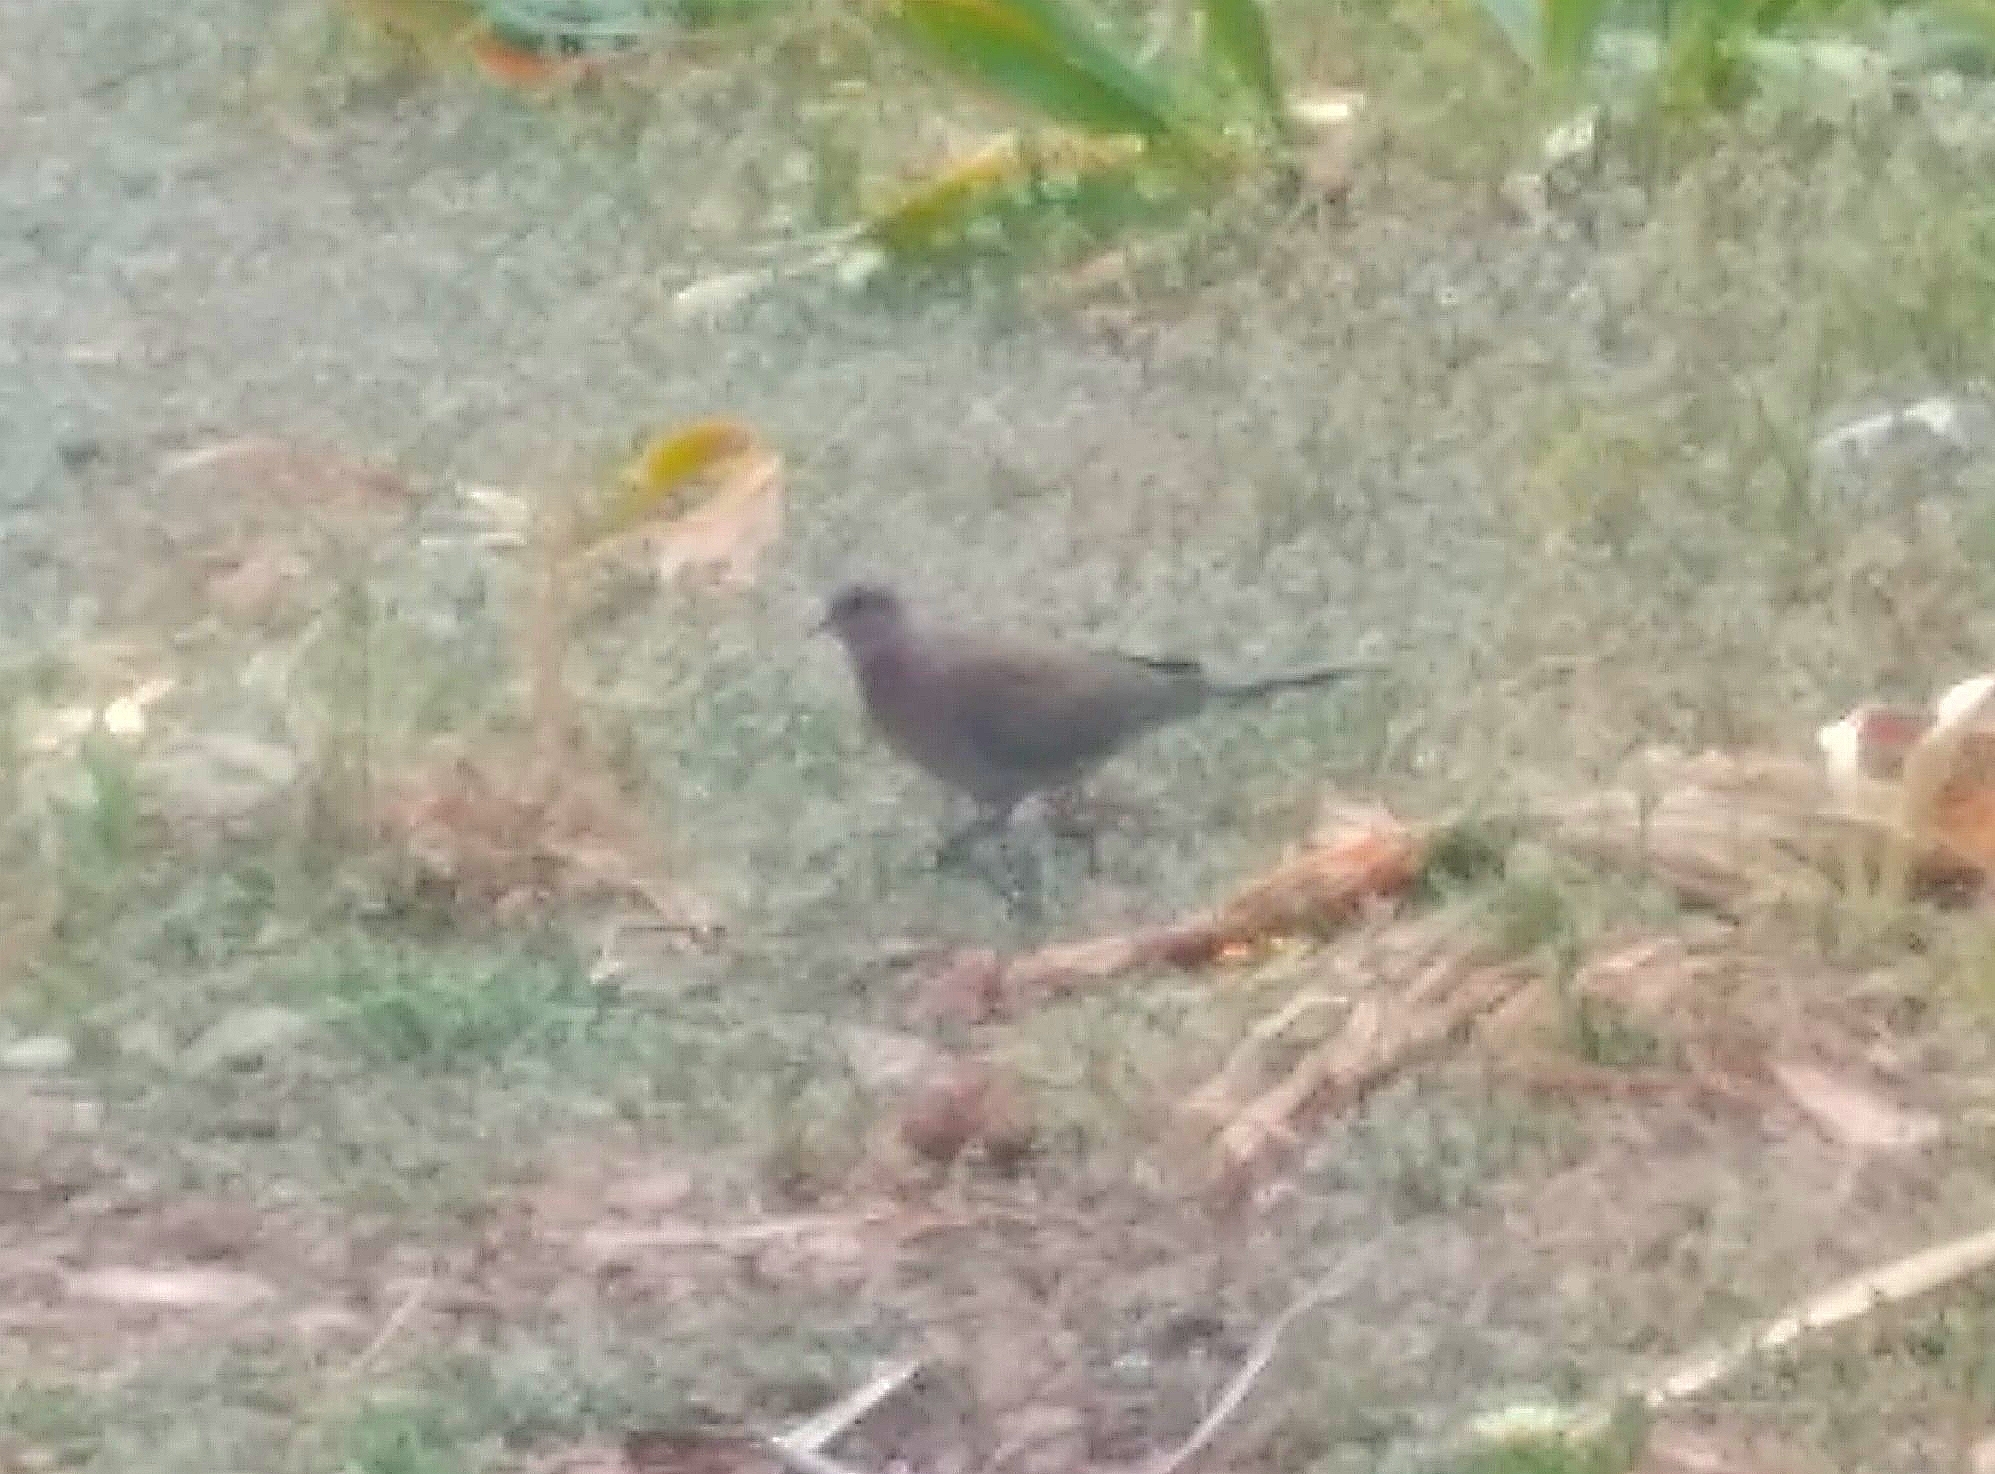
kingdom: Animalia
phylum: Chordata
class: Aves
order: Columbiformes
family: Columbidae
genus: Spilopelia
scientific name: Spilopelia senegalensis
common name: Laughing dove
